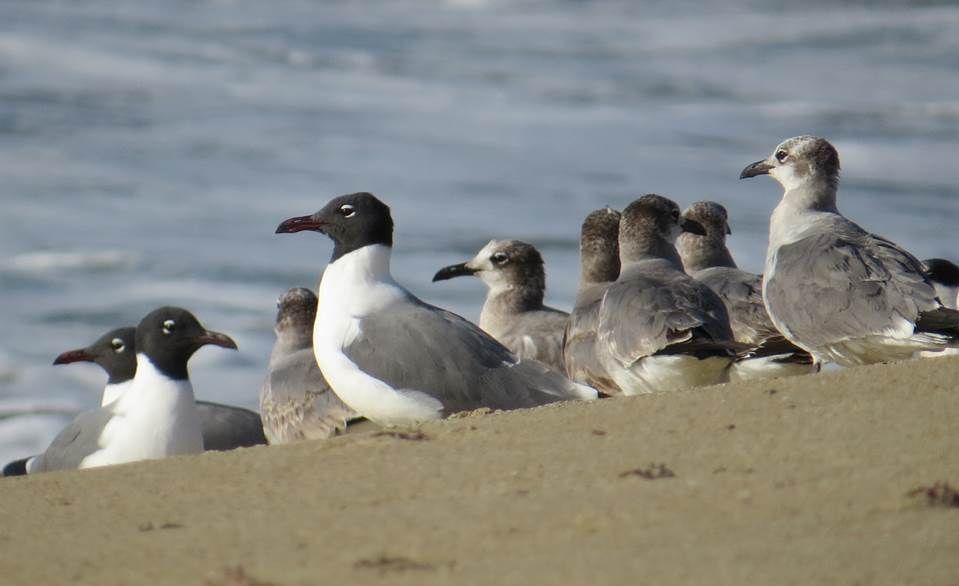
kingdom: Animalia
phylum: Chordata
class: Aves
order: Charadriiformes
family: Laridae
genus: Leucophaeus
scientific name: Leucophaeus atricilla
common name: Laughing gull
